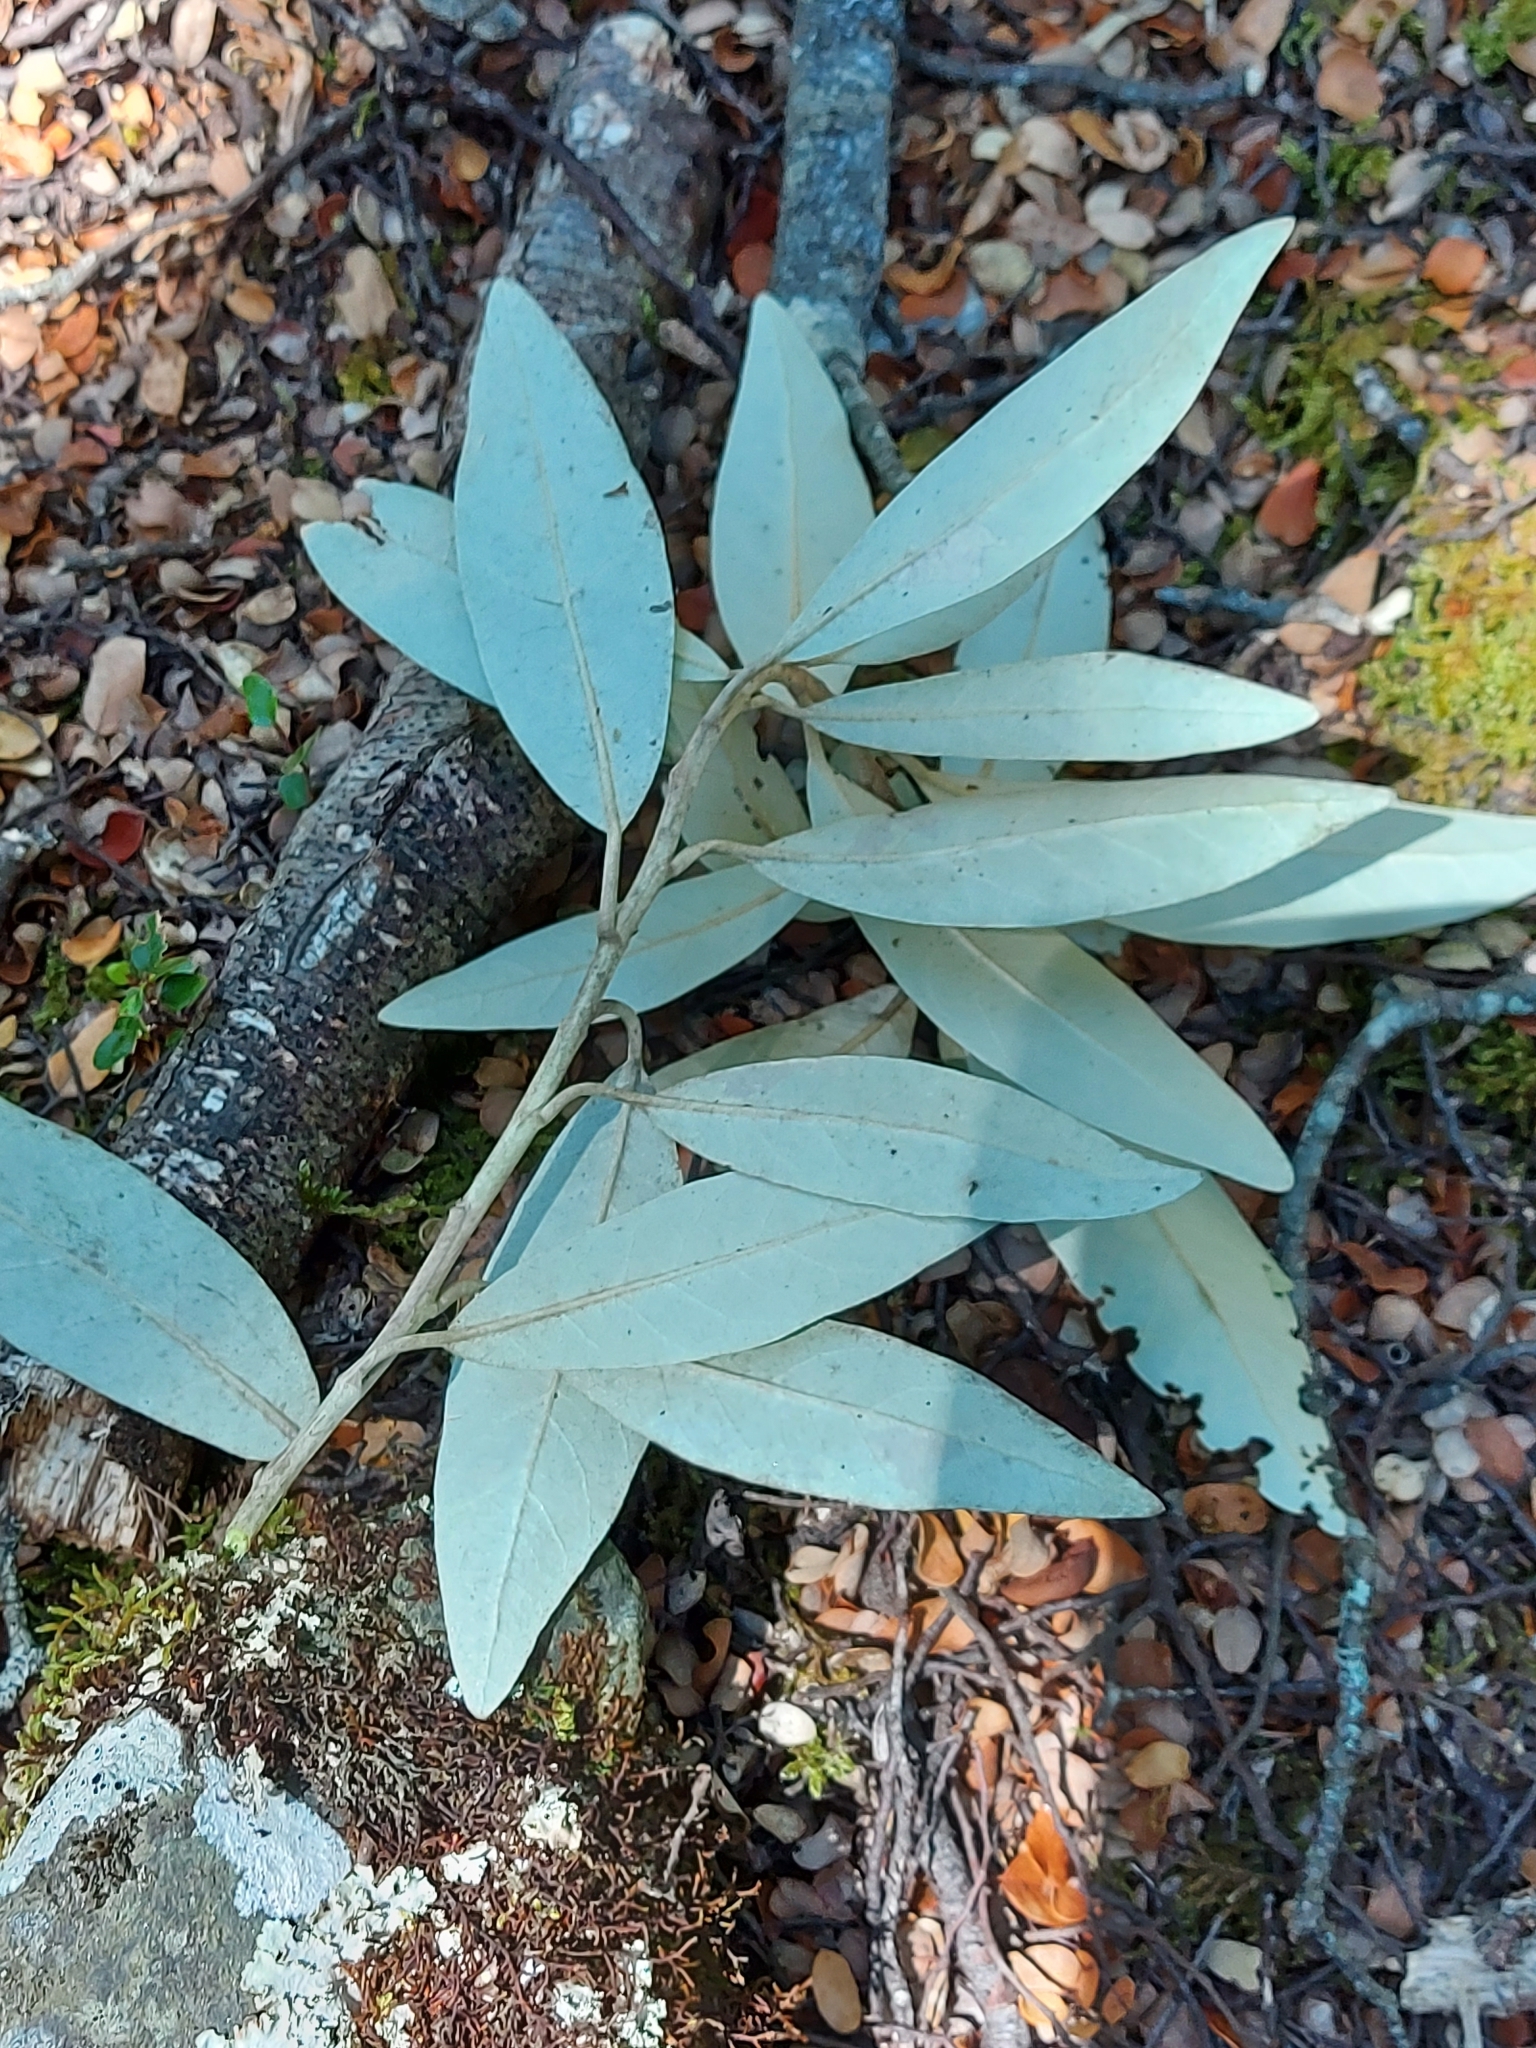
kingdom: Plantae
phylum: Tracheophyta
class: Magnoliopsida
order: Asterales
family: Asteraceae
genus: Olearia
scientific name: Olearia avicenniifolia
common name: Mangrove-leaf daisybush
